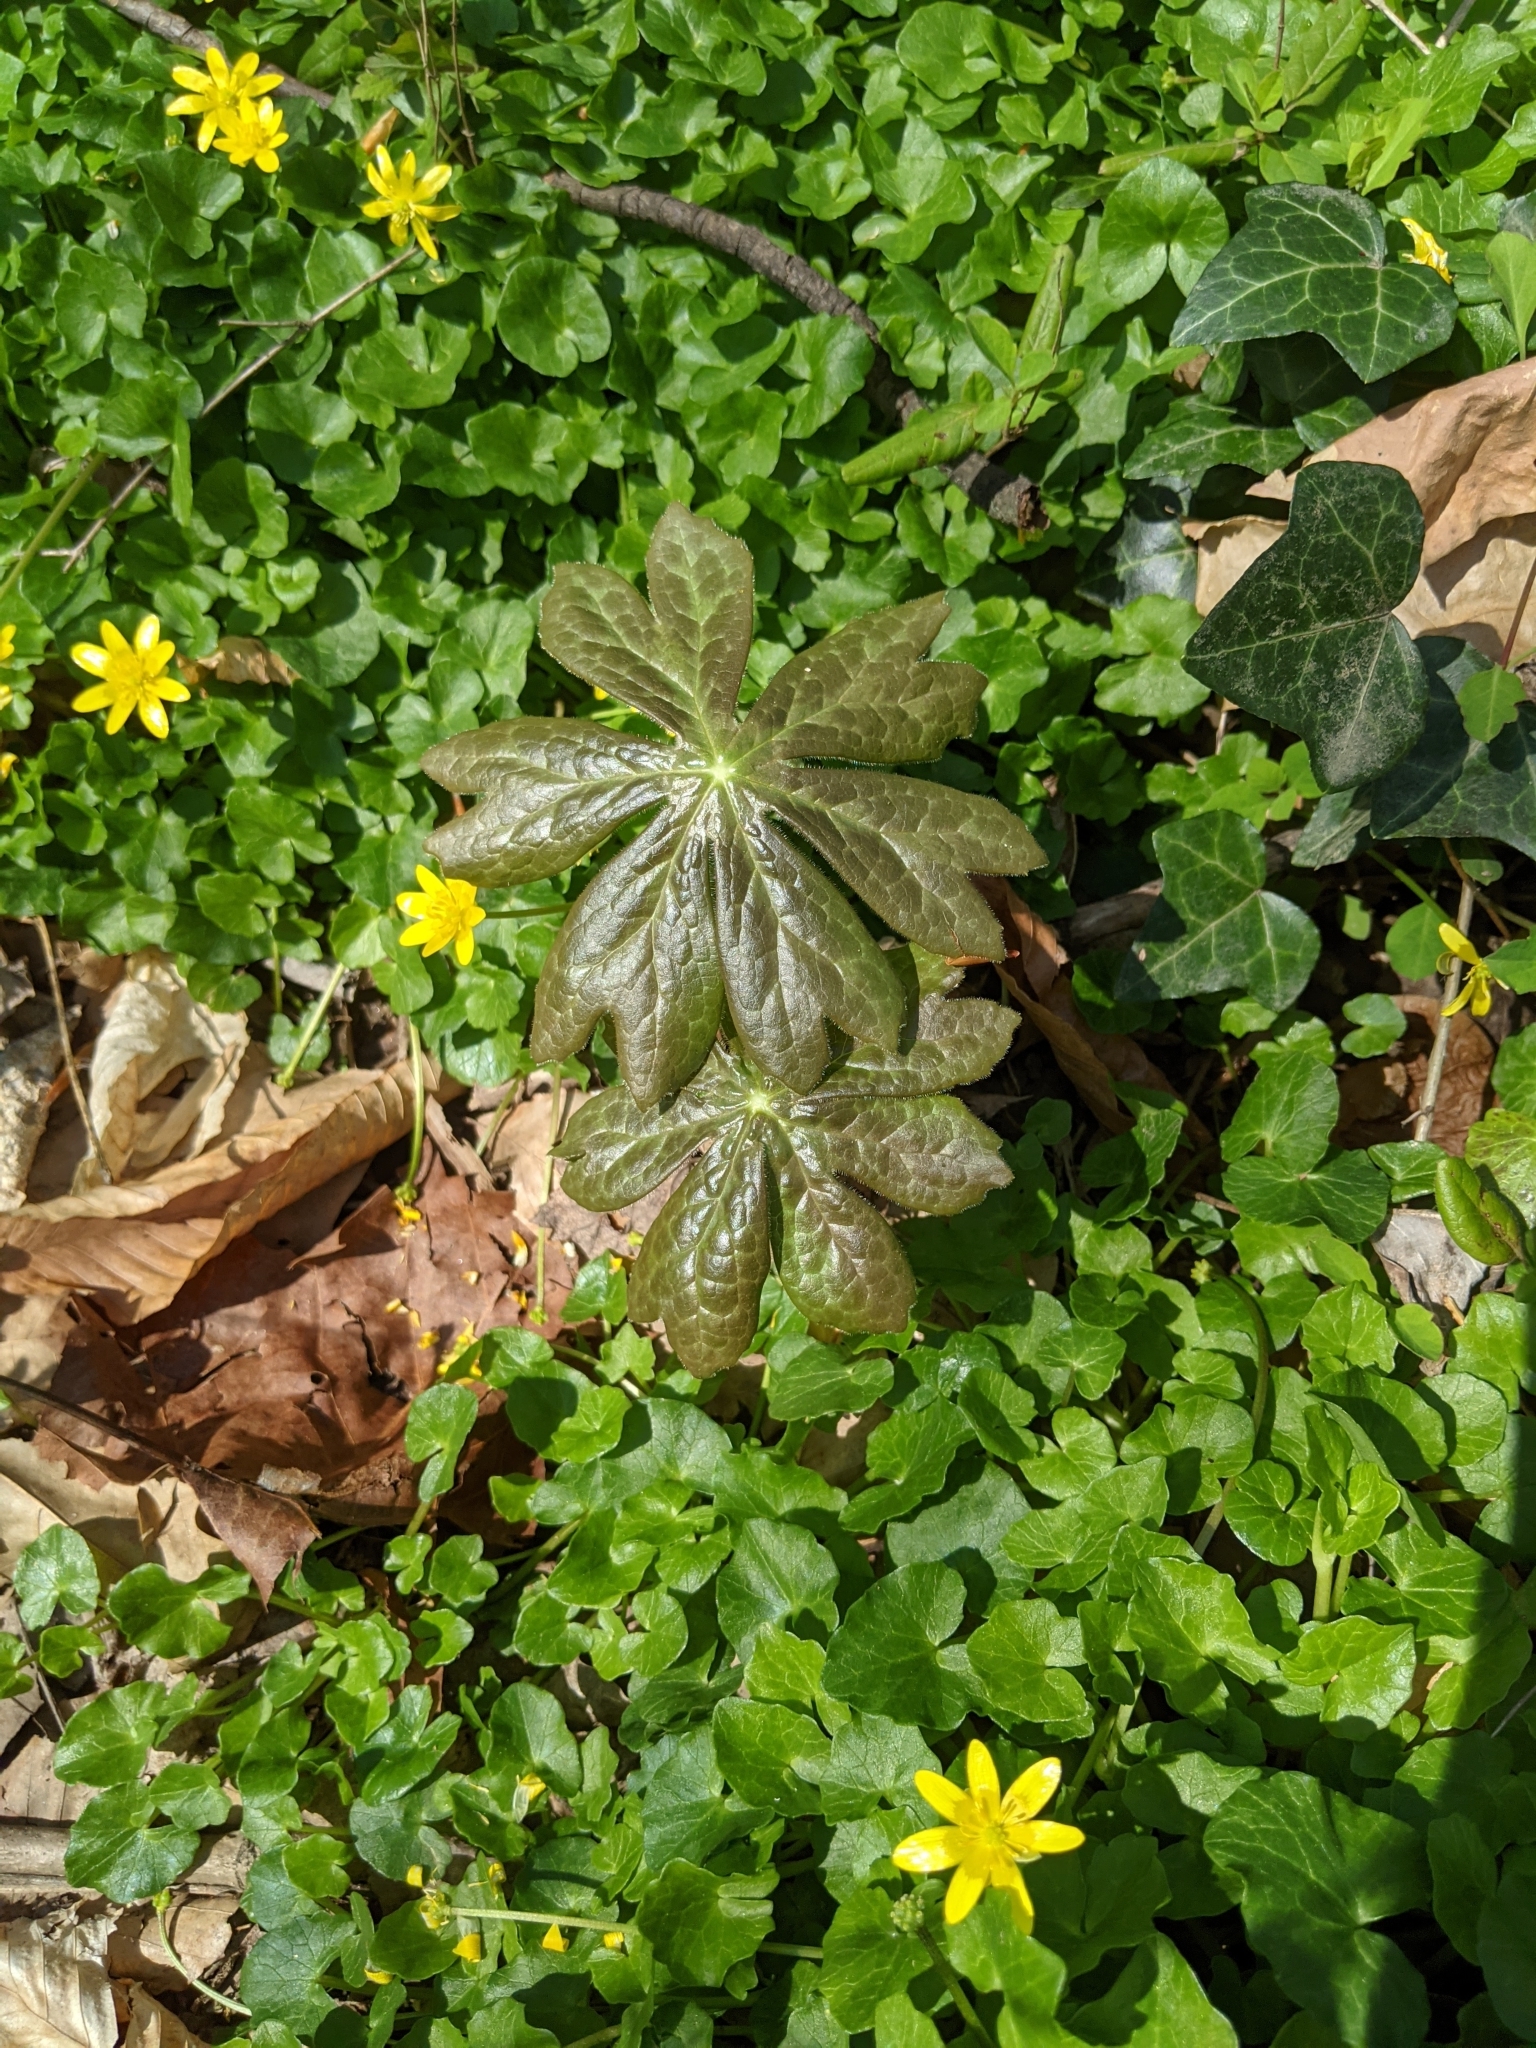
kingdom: Plantae
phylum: Tracheophyta
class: Magnoliopsida
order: Ranunculales
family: Berberidaceae
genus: Podophyllum
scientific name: Podophyllum peltatum
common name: Wild mandrake
